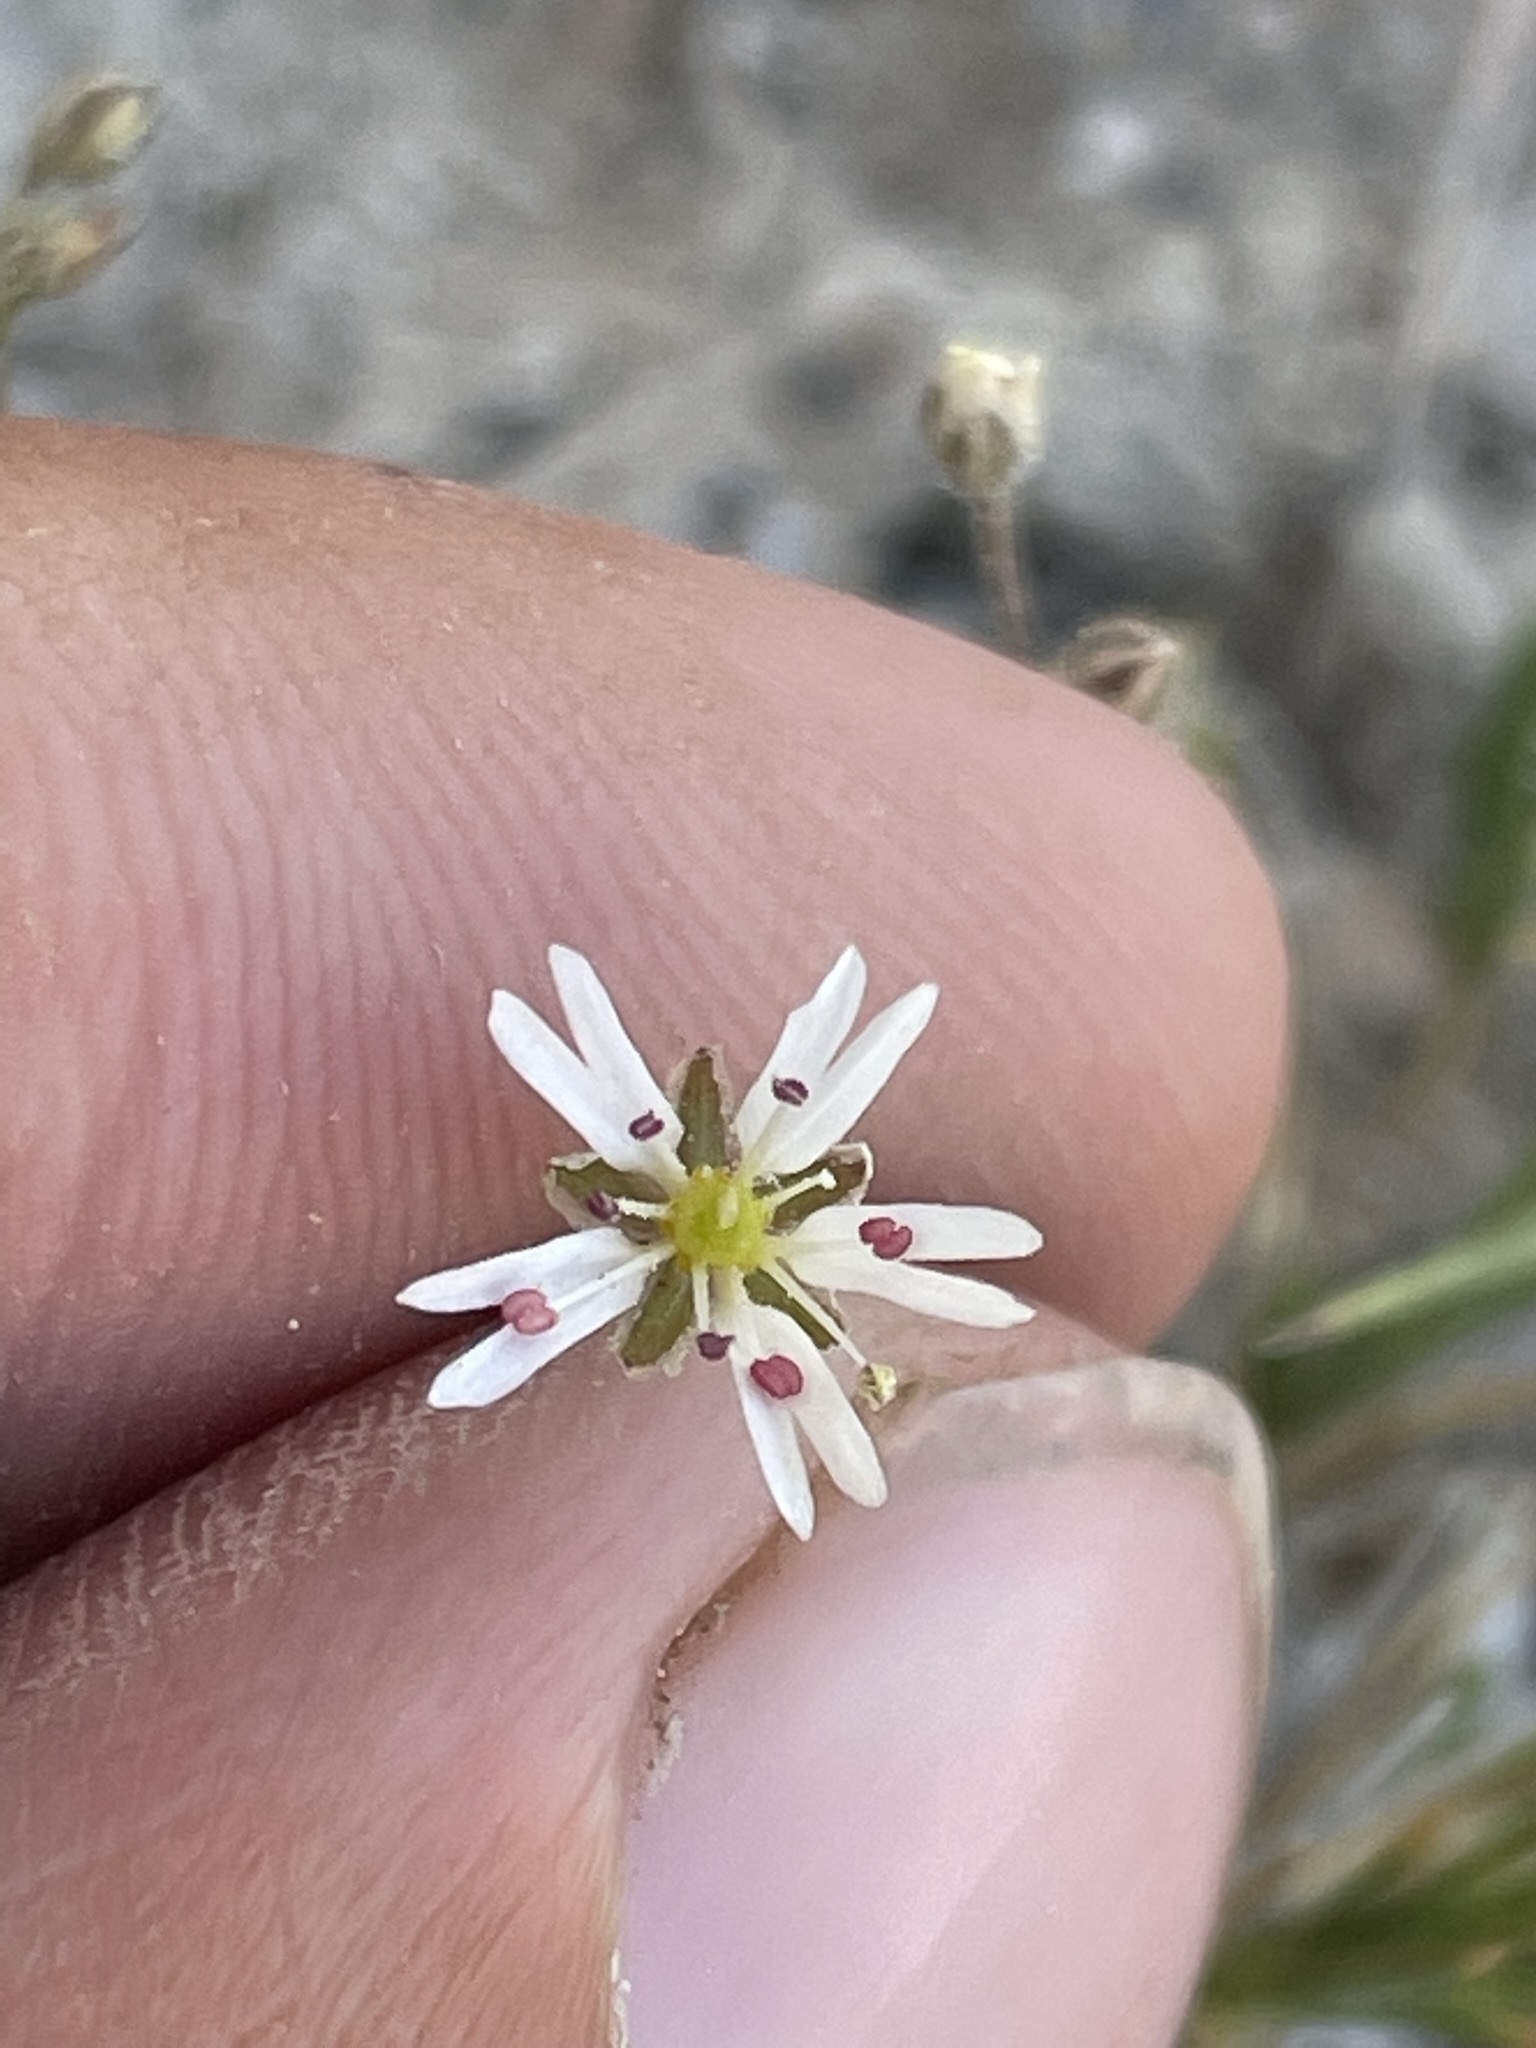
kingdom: Plantae
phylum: Tracheophyta
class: Magnoliopsida
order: Caryophyllales
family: Caryophyllaceae
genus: Eremogone
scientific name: Eremogone kingii
